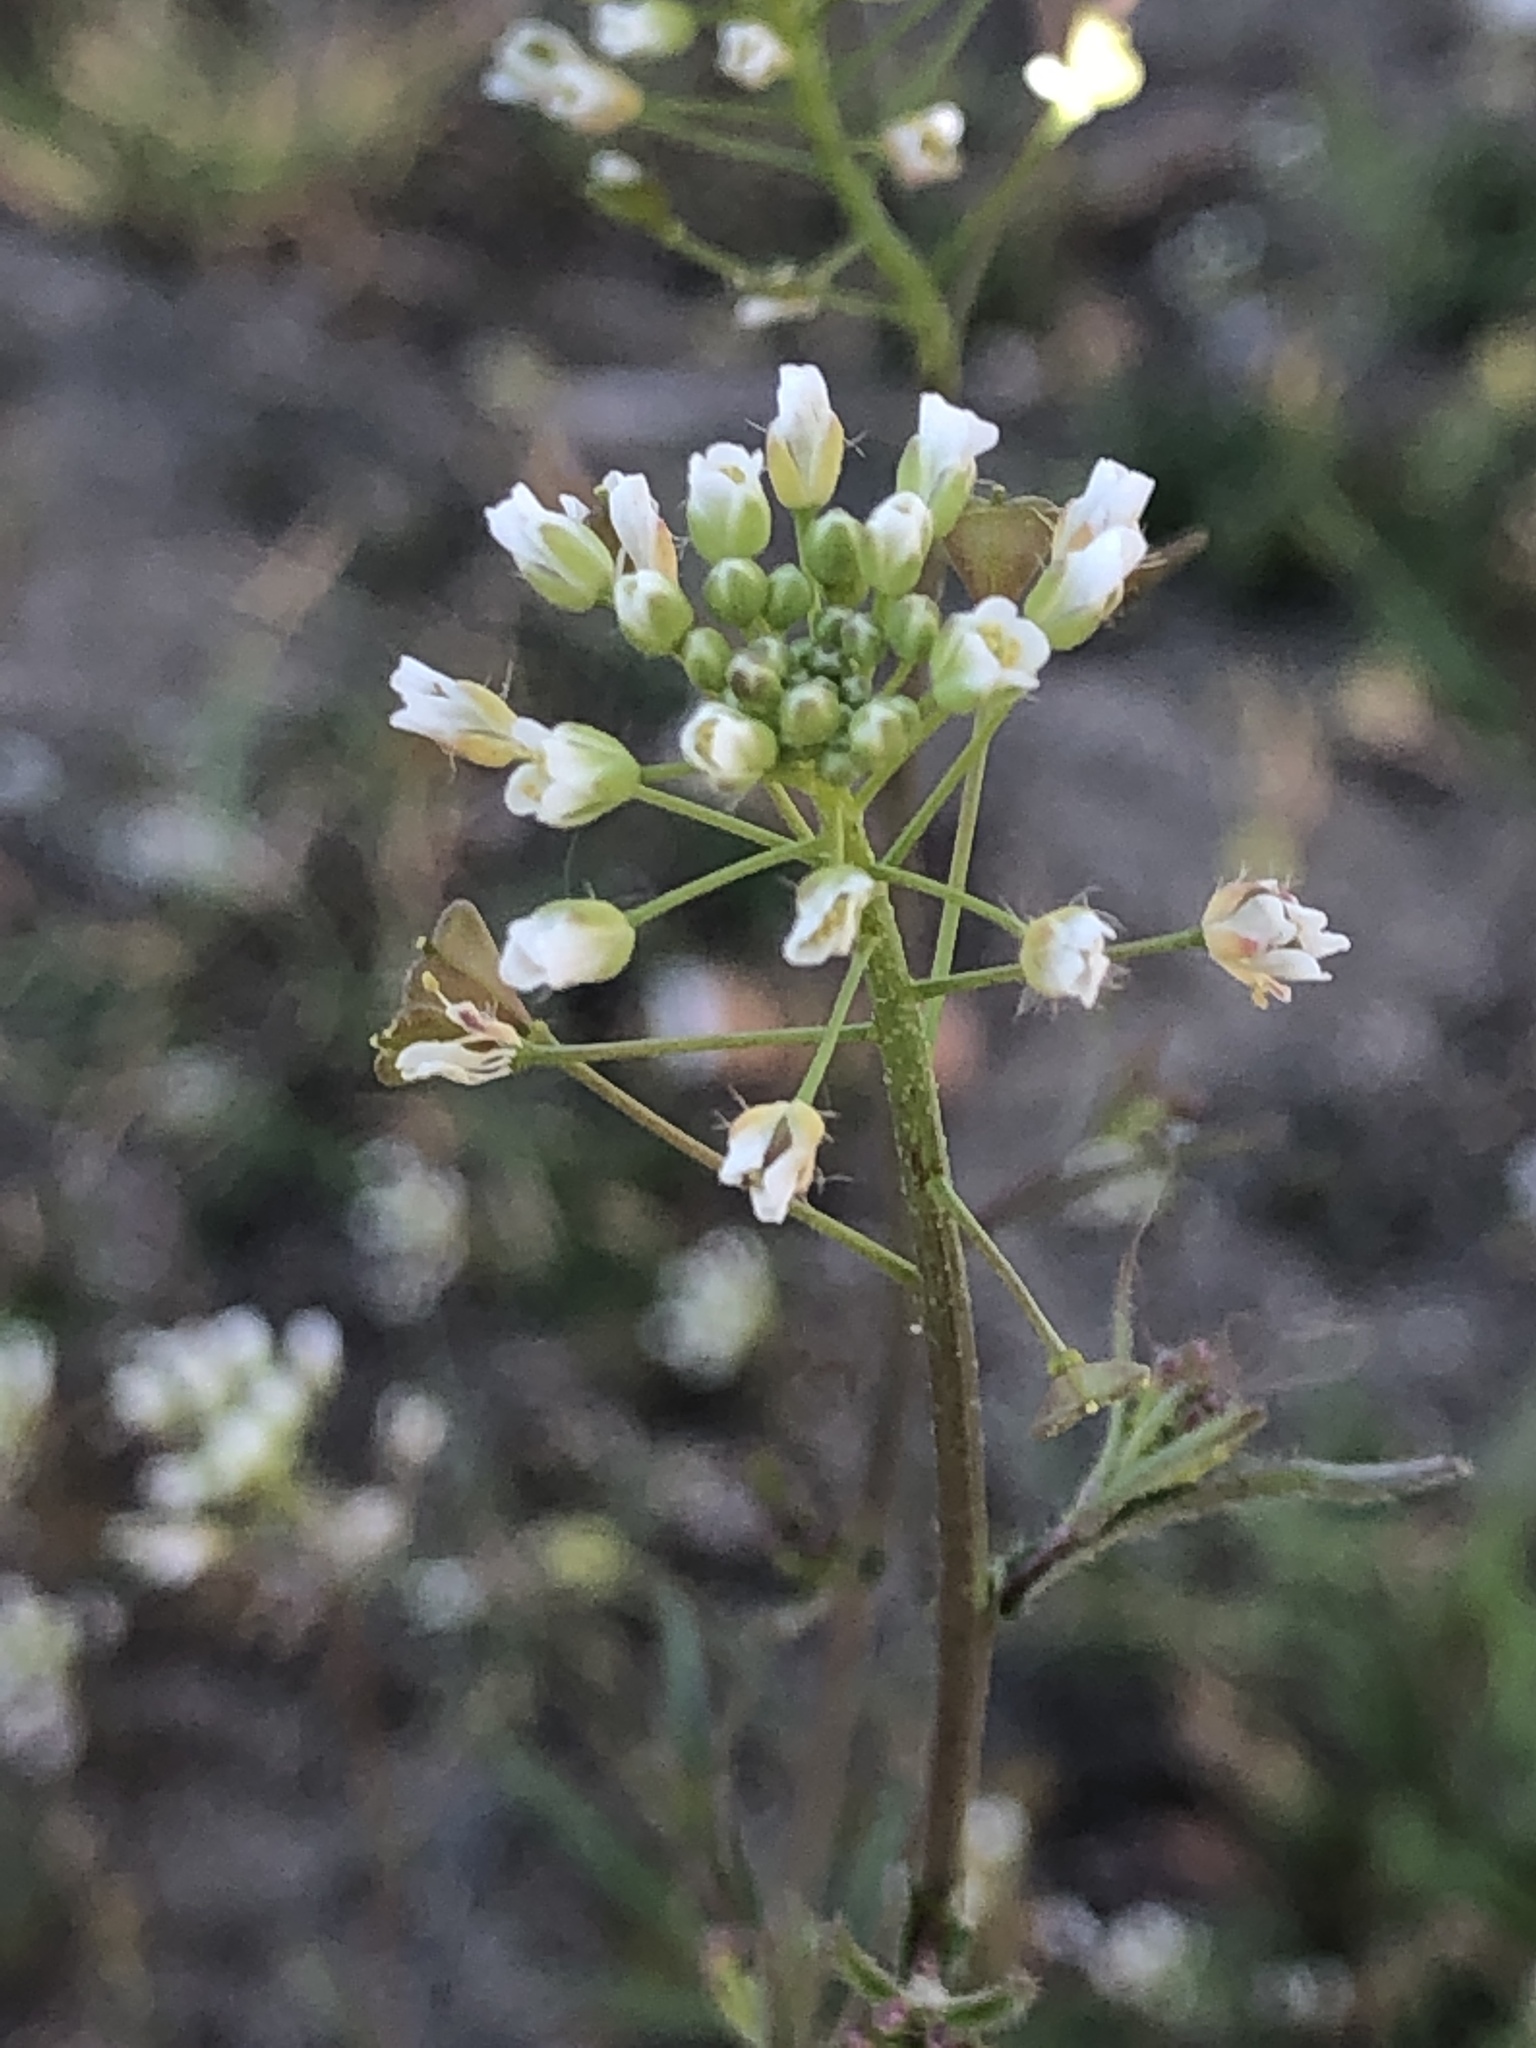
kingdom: Plantae
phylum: Tracheophyta
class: Magnoliopsida
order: Brassicales
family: Brassicaceae
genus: Capsella
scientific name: Capsella bursa-pastoris
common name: Shepherd's purse
